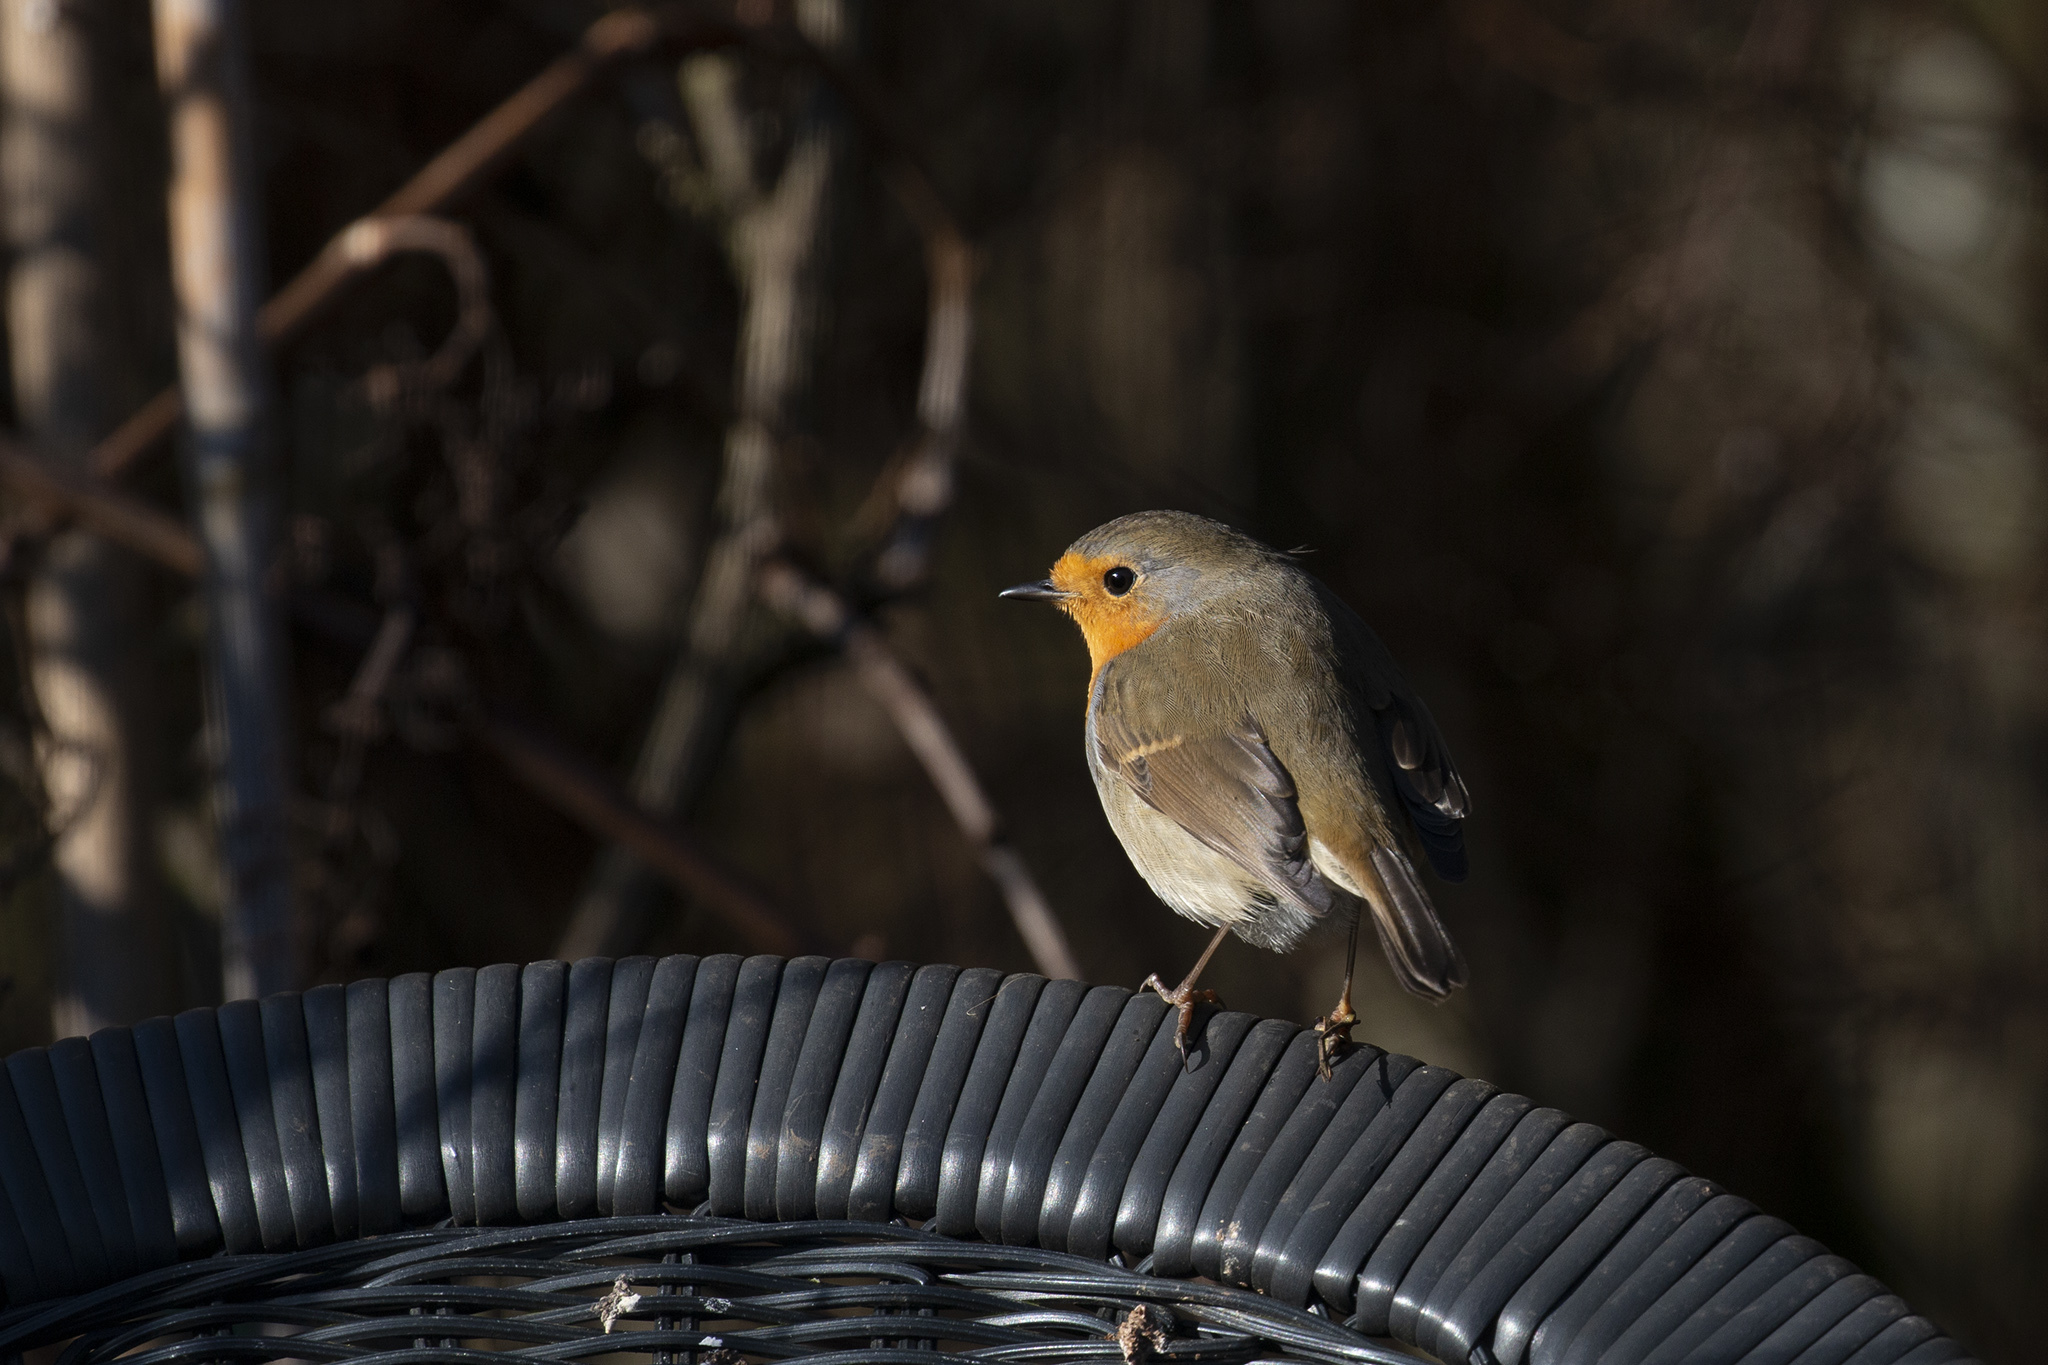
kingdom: Animalia
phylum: Chordata
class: Aves
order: Passeriformes
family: Muscicapidae
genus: Erithacus
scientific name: Erithacus rubecula
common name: European robin
